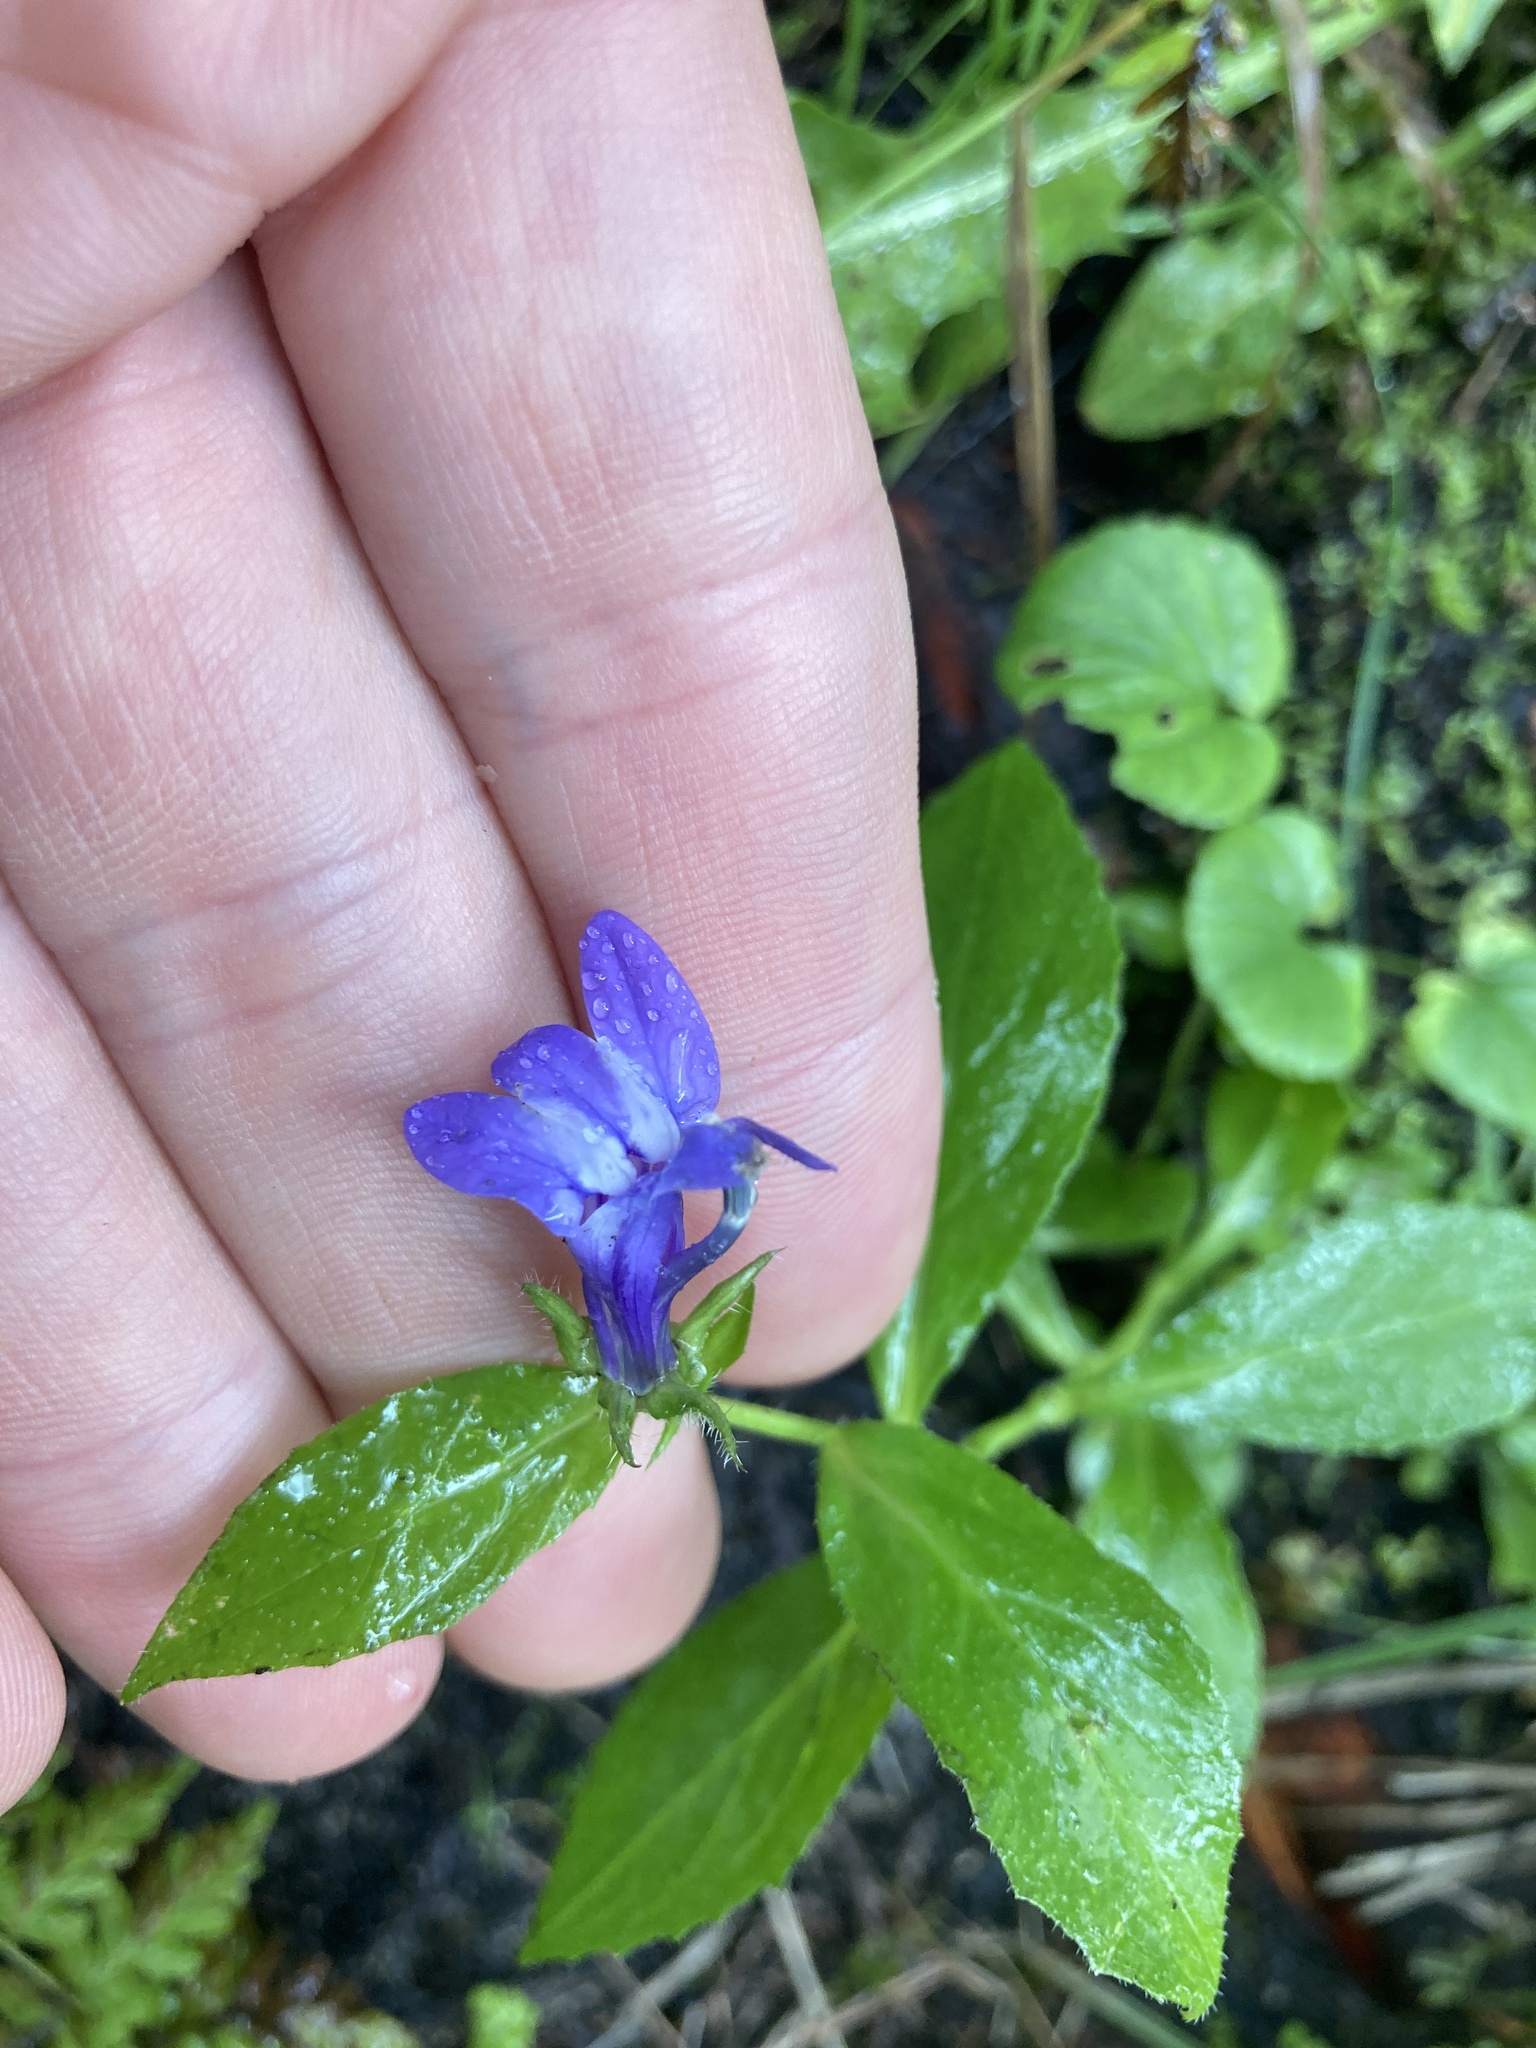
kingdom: Plantae
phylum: Tracheophyta
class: Magnoliopsida
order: Asterales
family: Campanulaceae
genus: Lobelia
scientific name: Lobelia siphilitica
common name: Great lobelia
